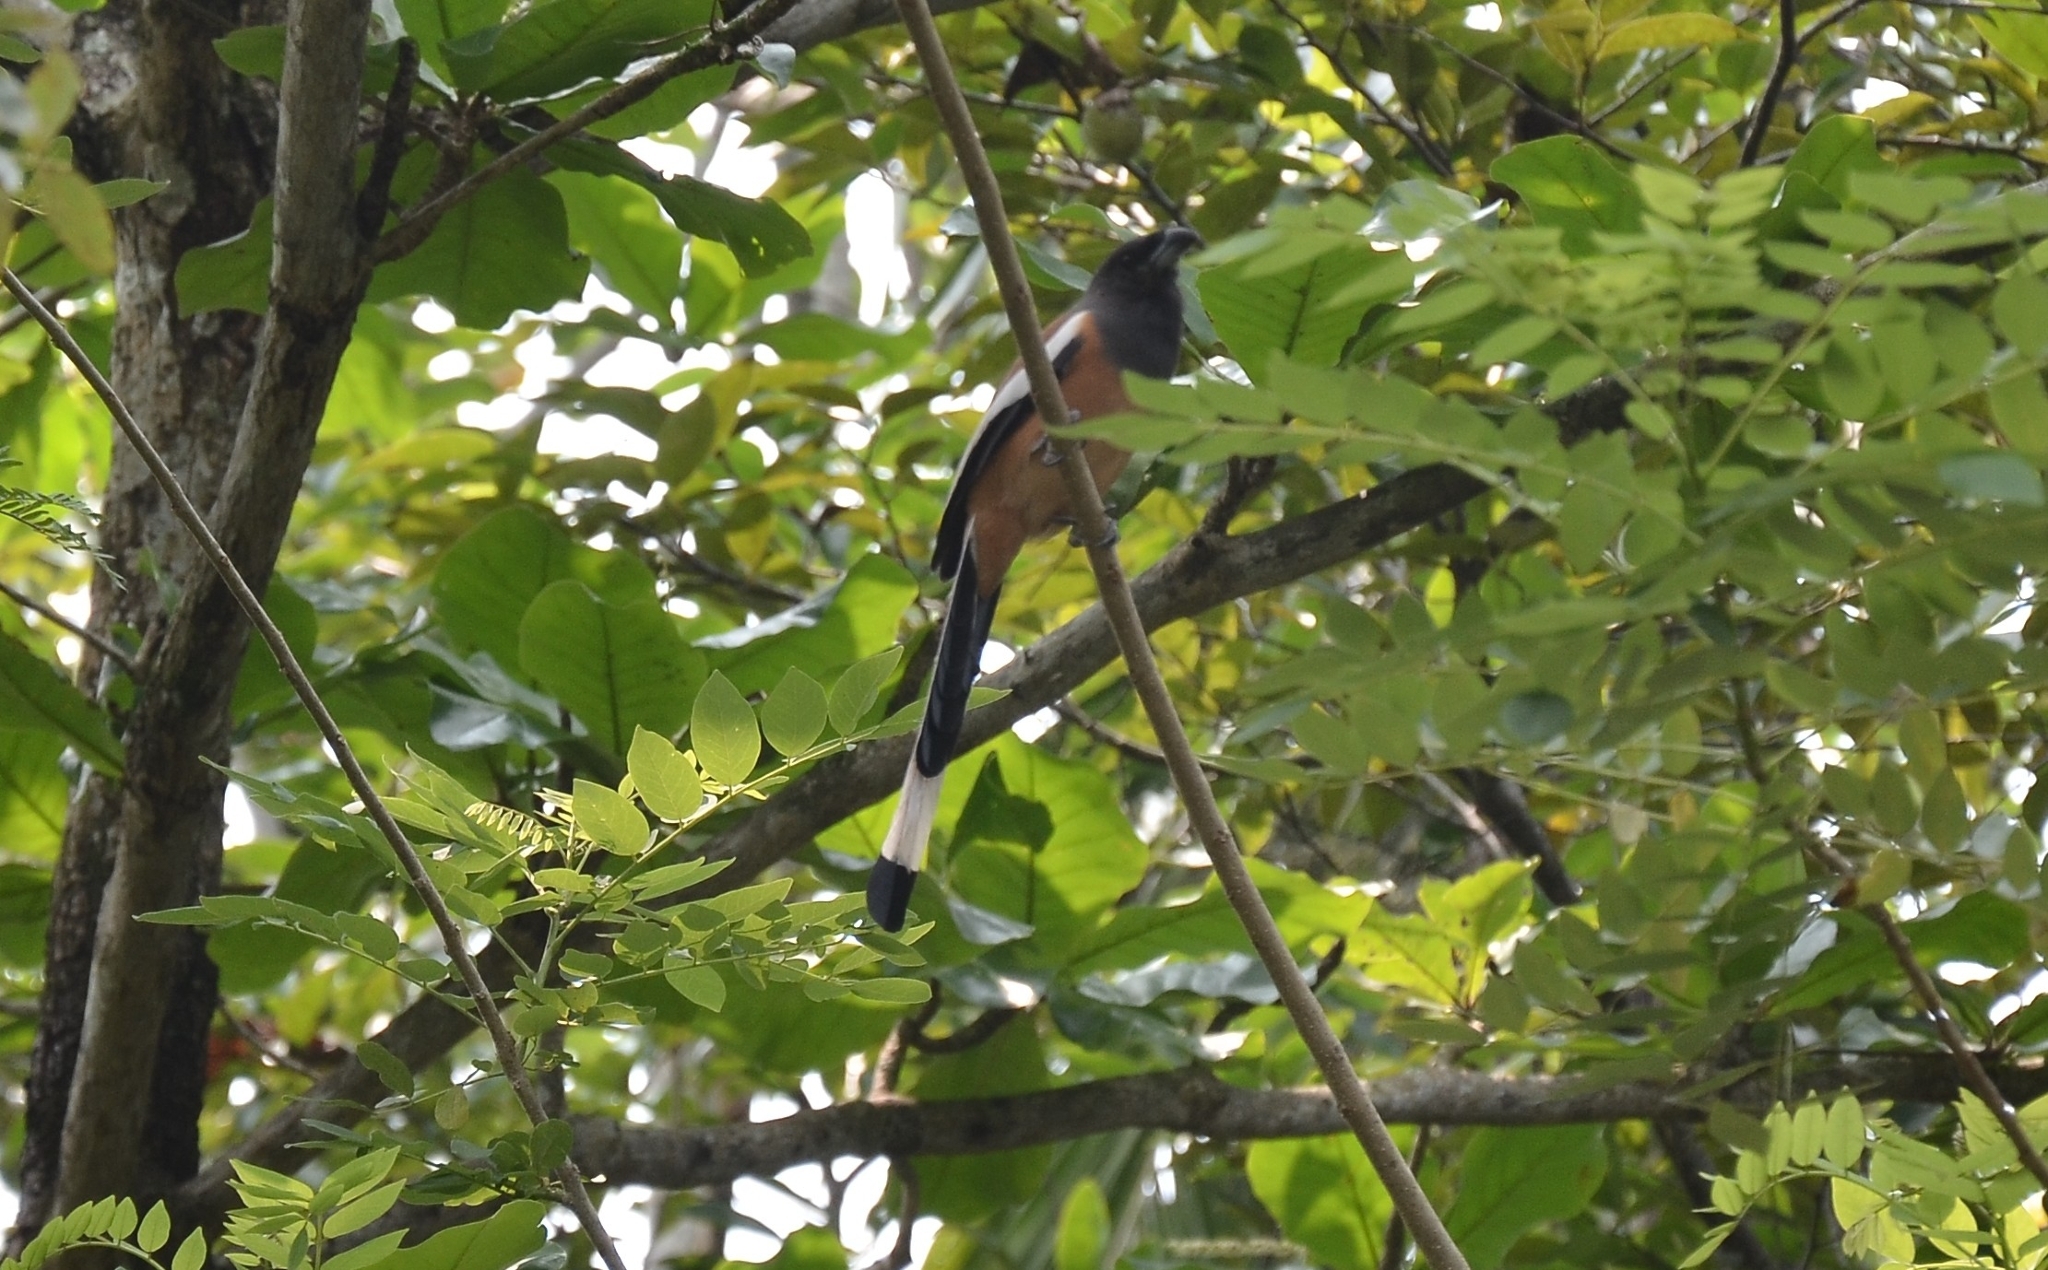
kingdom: Animalia
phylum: Chordata
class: Aves
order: Passeriformes
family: Corvidae
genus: Dendrocitta
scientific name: Dendrocitta vagabunda
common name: Rufous treepie
